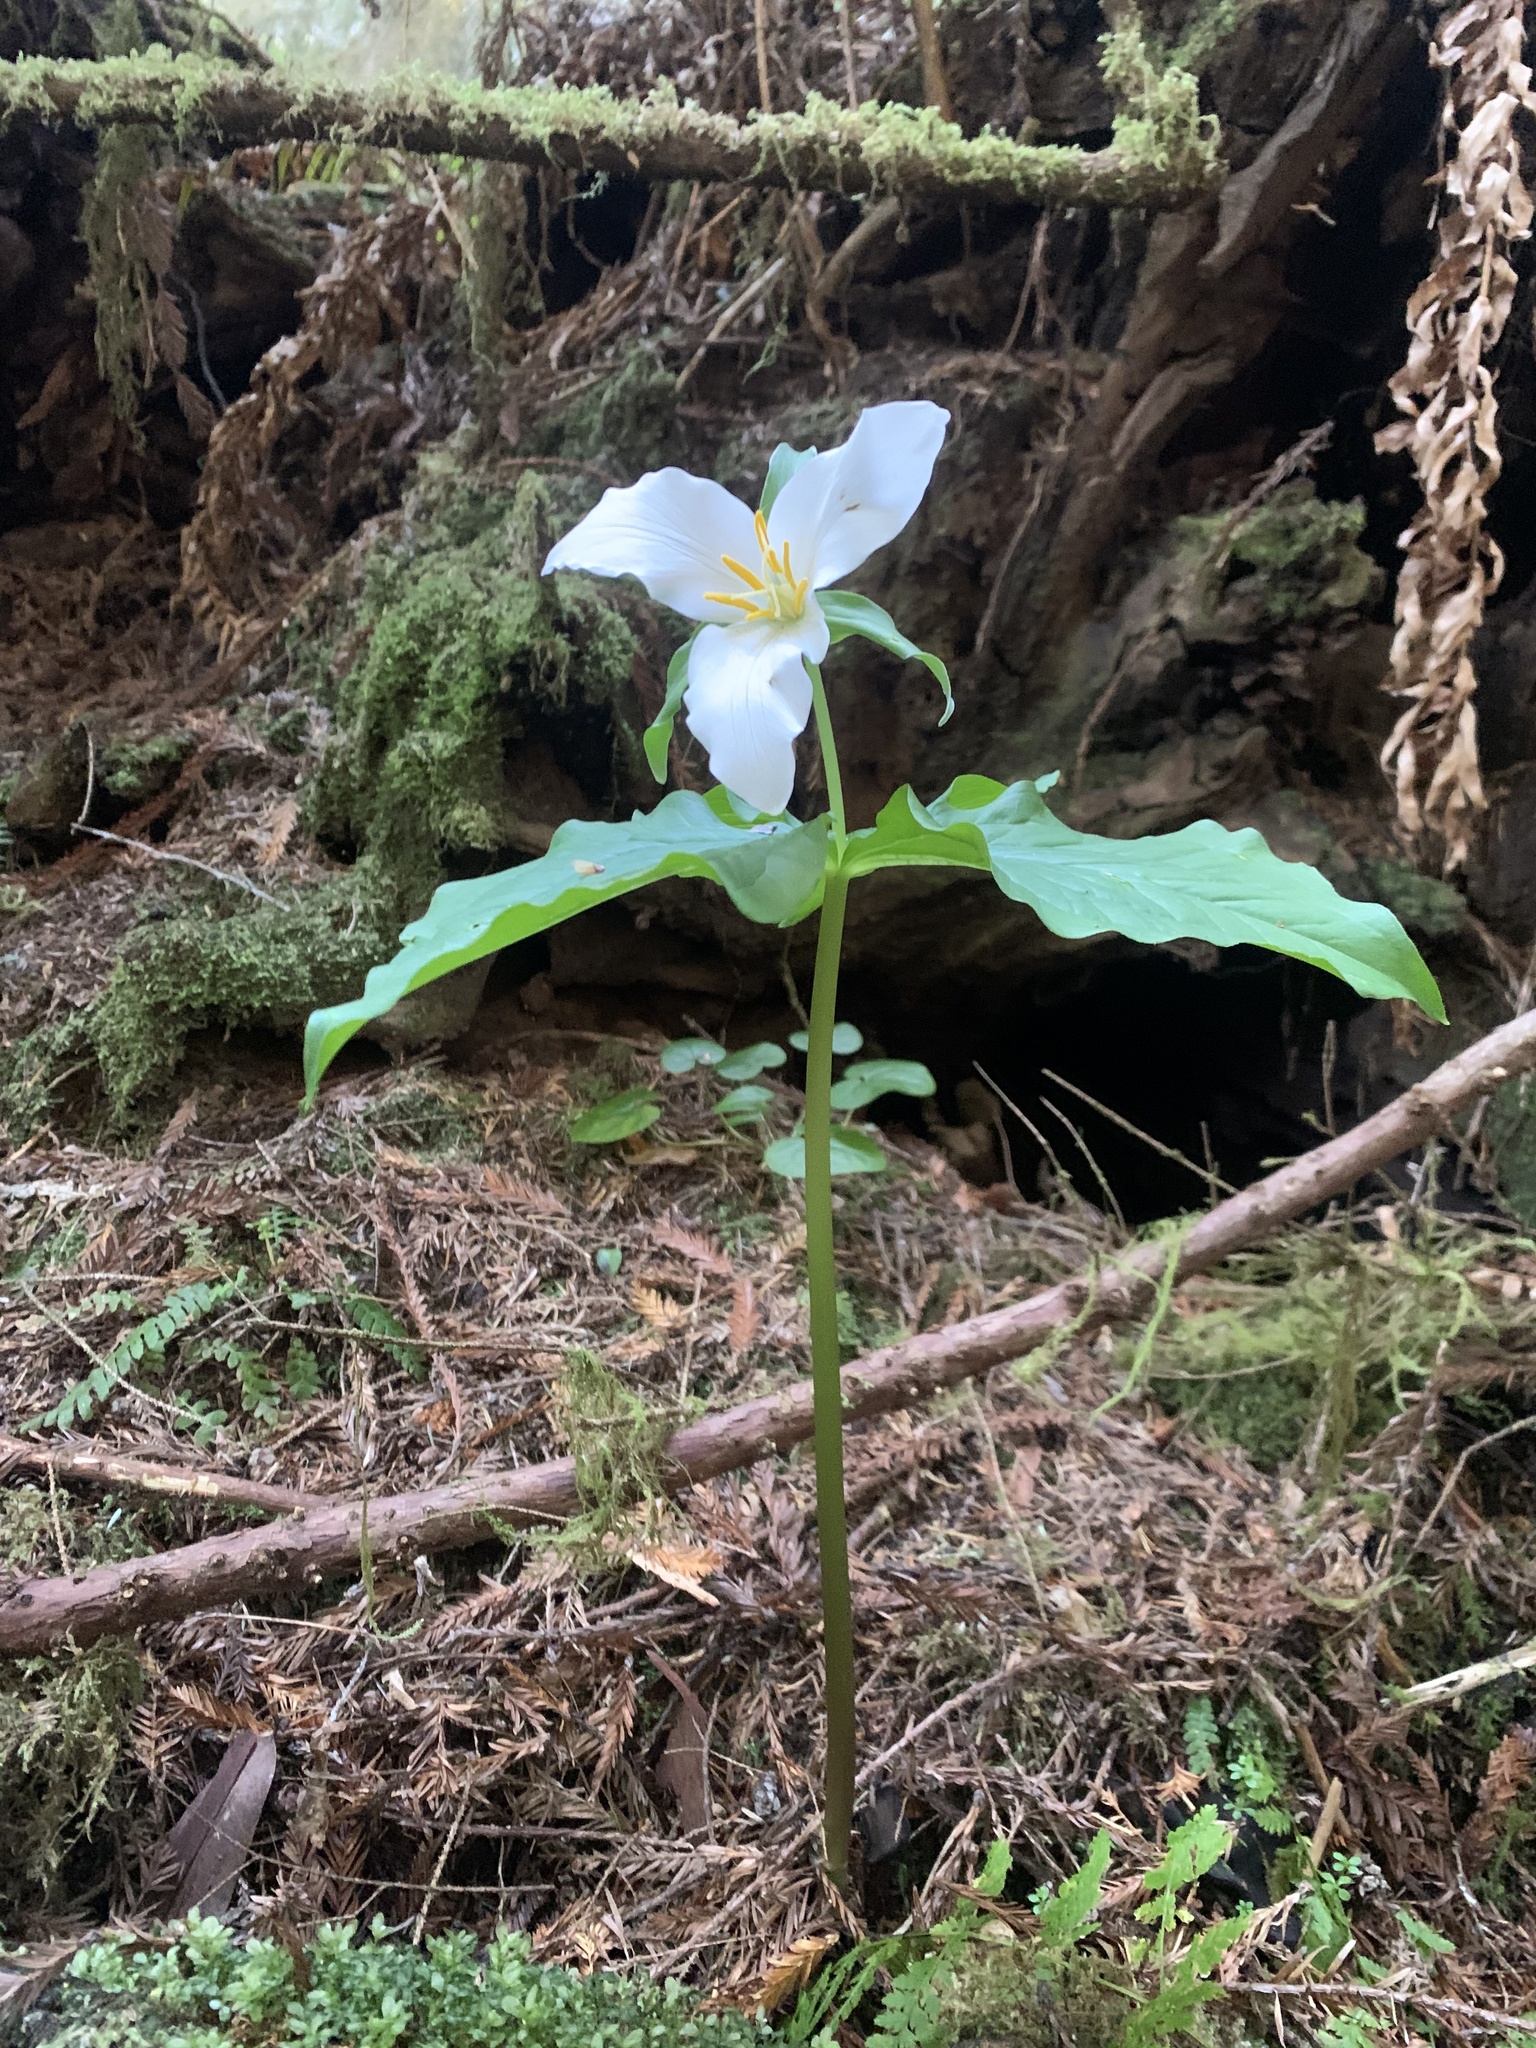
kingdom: Plantae
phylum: Tracheophyta
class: Liliopsida
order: Liliales
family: Melanthiaceae
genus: Trillium
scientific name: Trillium ovatum
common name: Pacific trillium
